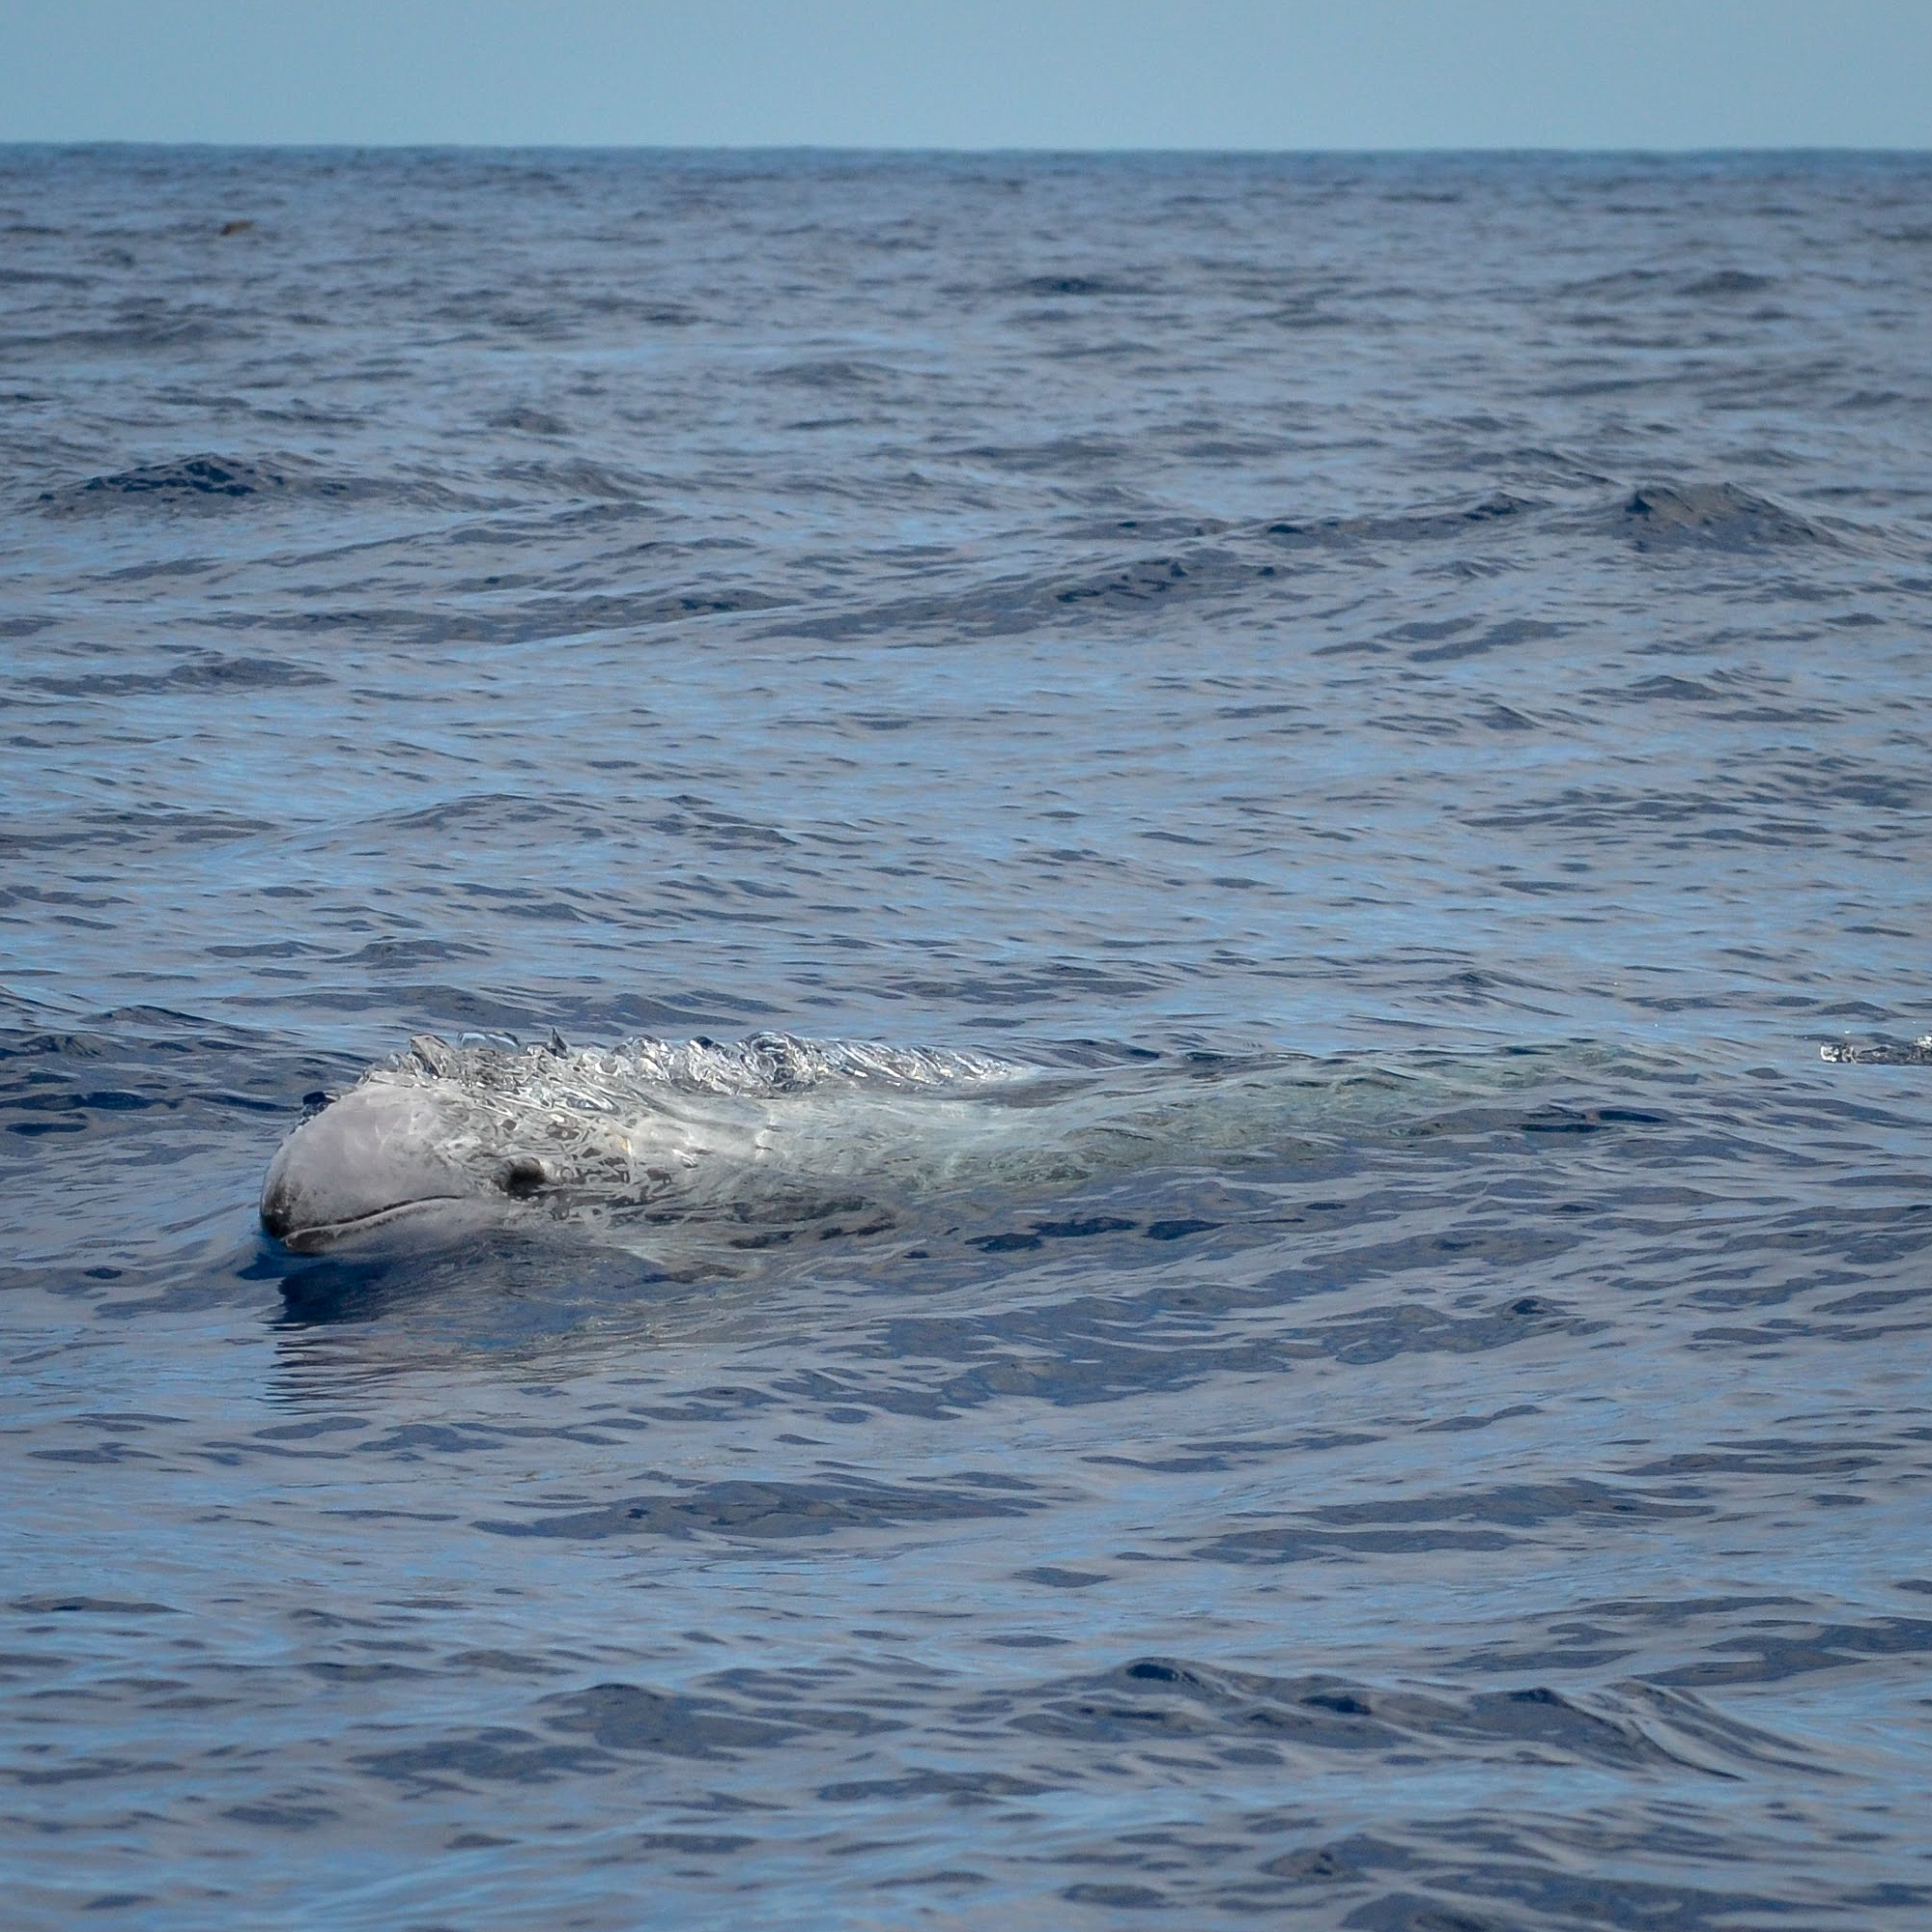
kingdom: Animalia
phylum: Chordata
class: Mammalia
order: Cetacea
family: Delphinidae
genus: Grampus
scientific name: Grampus griseus
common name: Risso's dolphin
